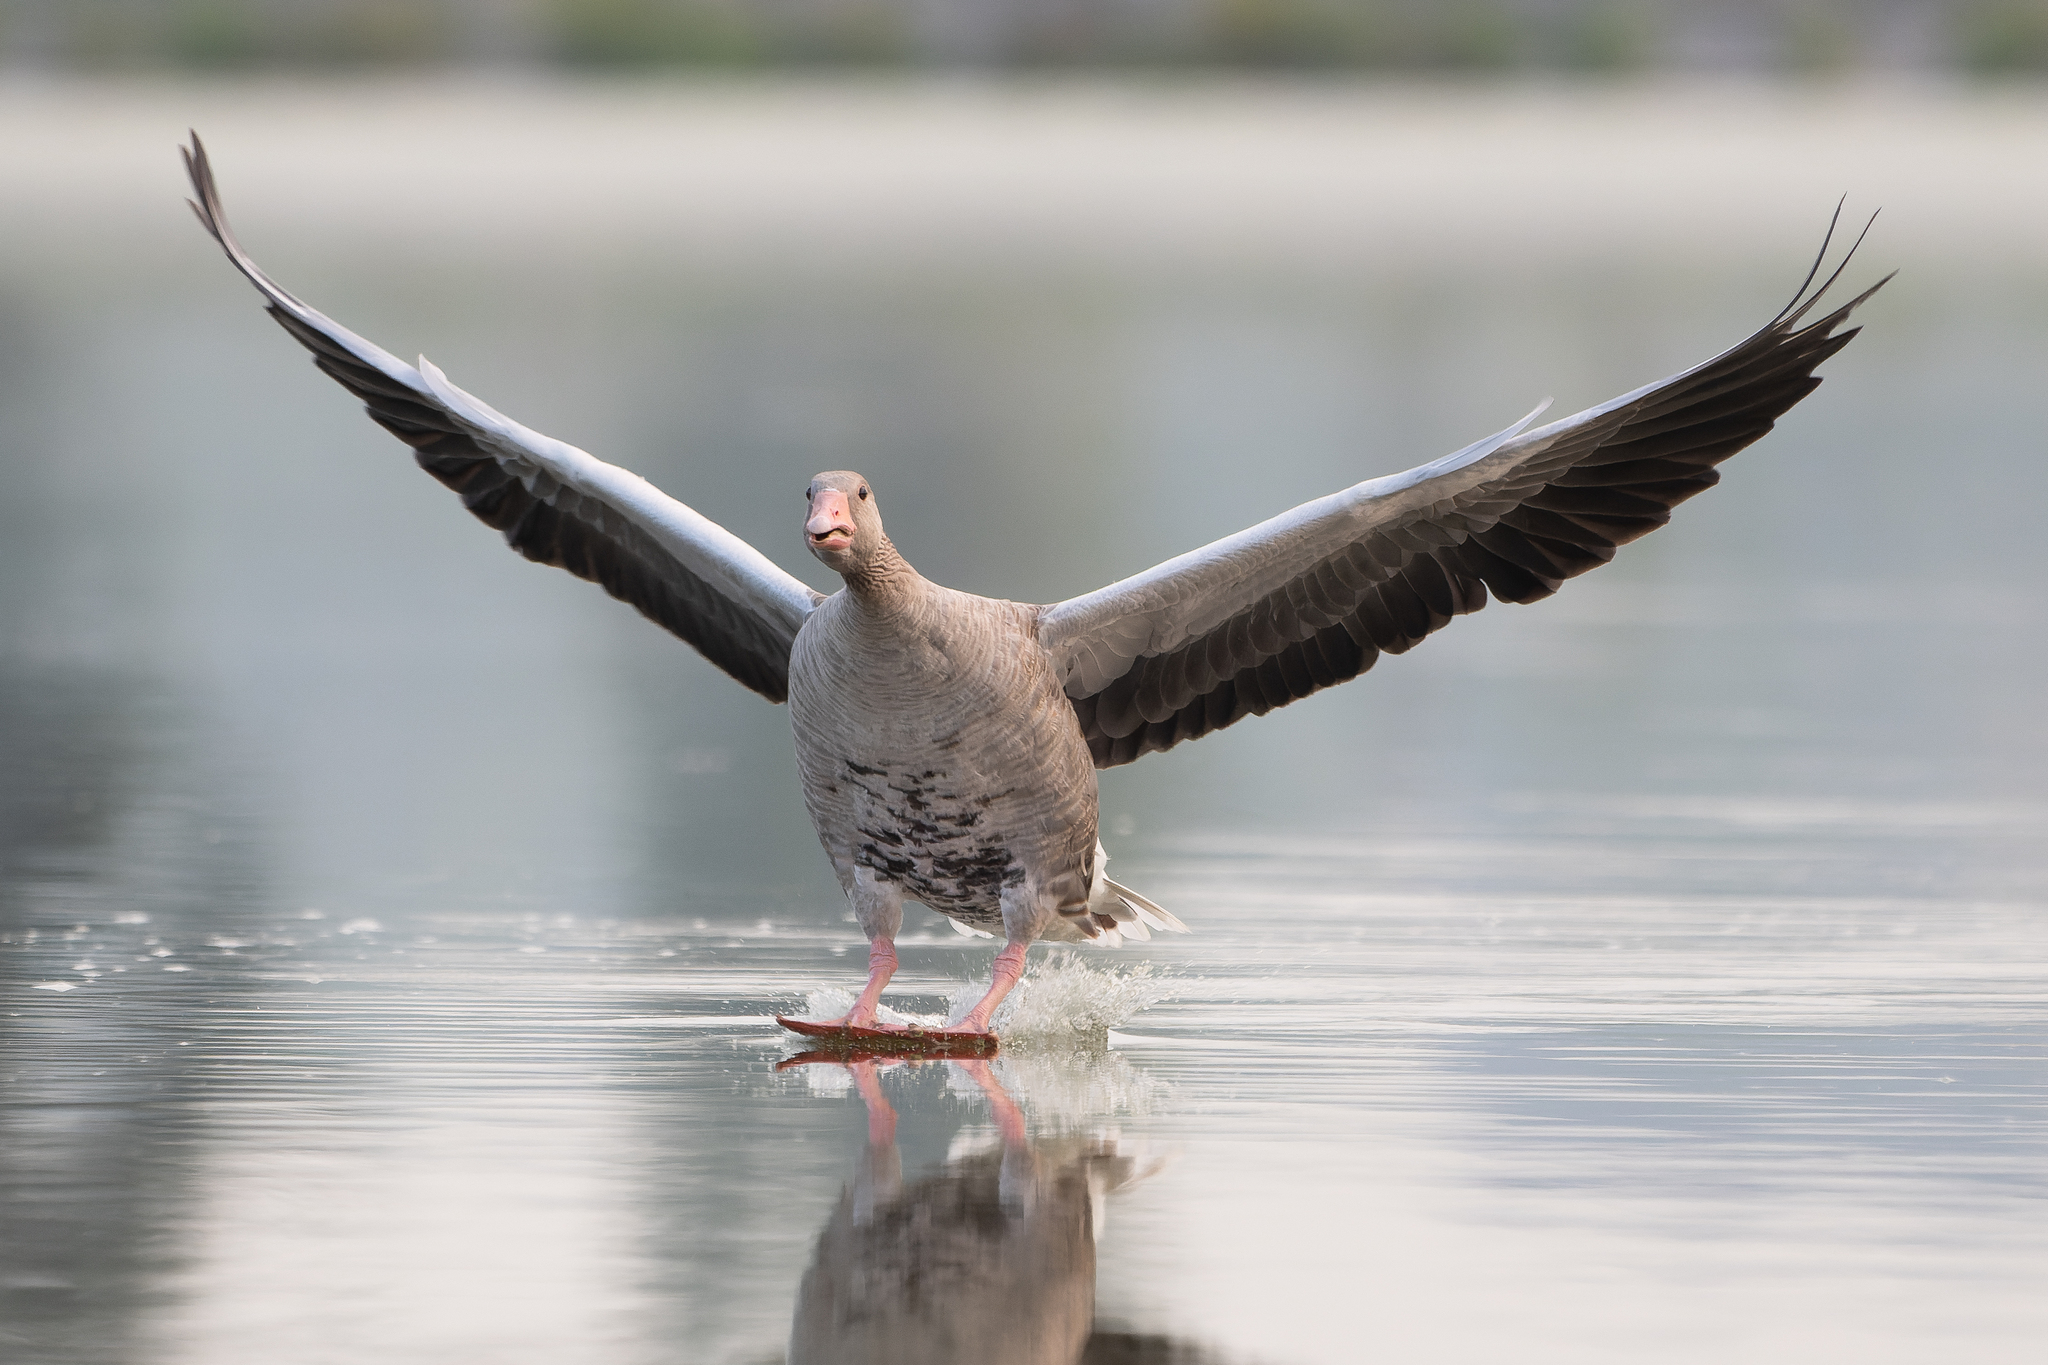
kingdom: Animalia
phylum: Chordata
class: Aves
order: Anseriformes
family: Anatidae
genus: Anser
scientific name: Anser anser
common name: Greylag goose
